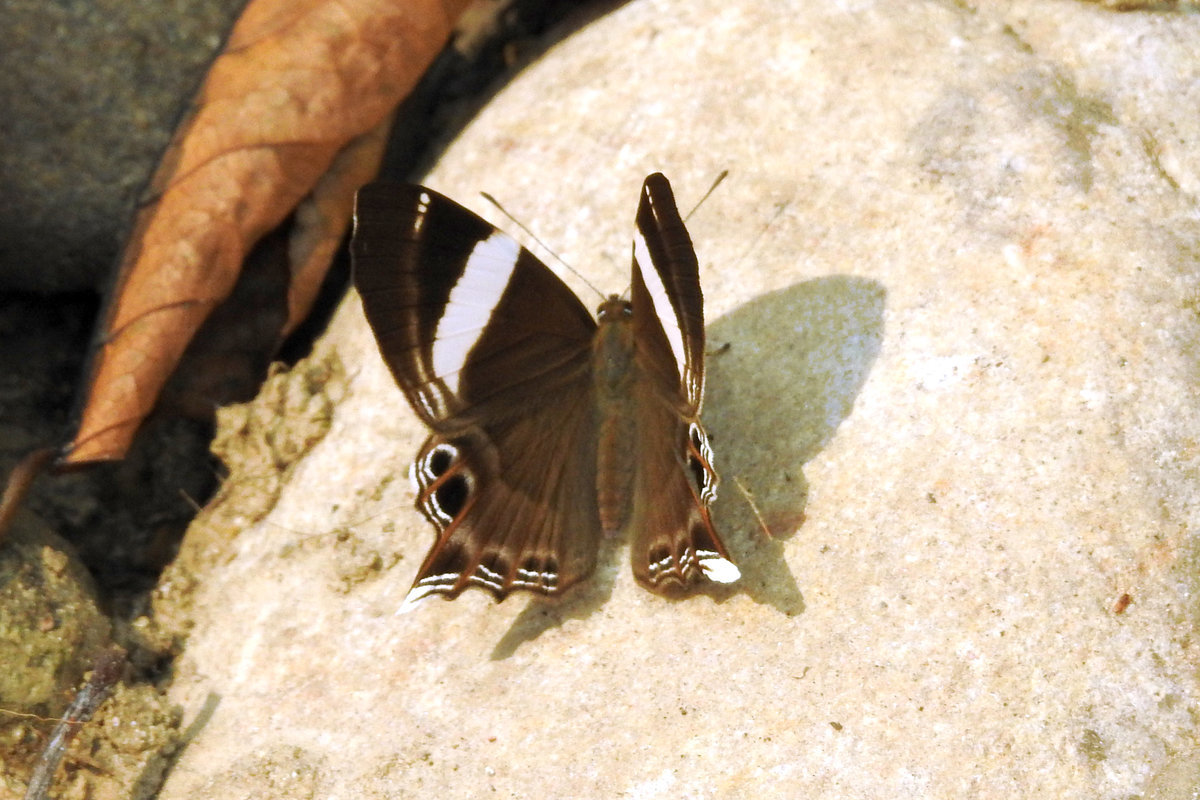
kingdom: Animalia
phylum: Arthropoda
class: Insecta
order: Lepidoptera
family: Lycaenidae
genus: Abisara
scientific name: Abisara chela
